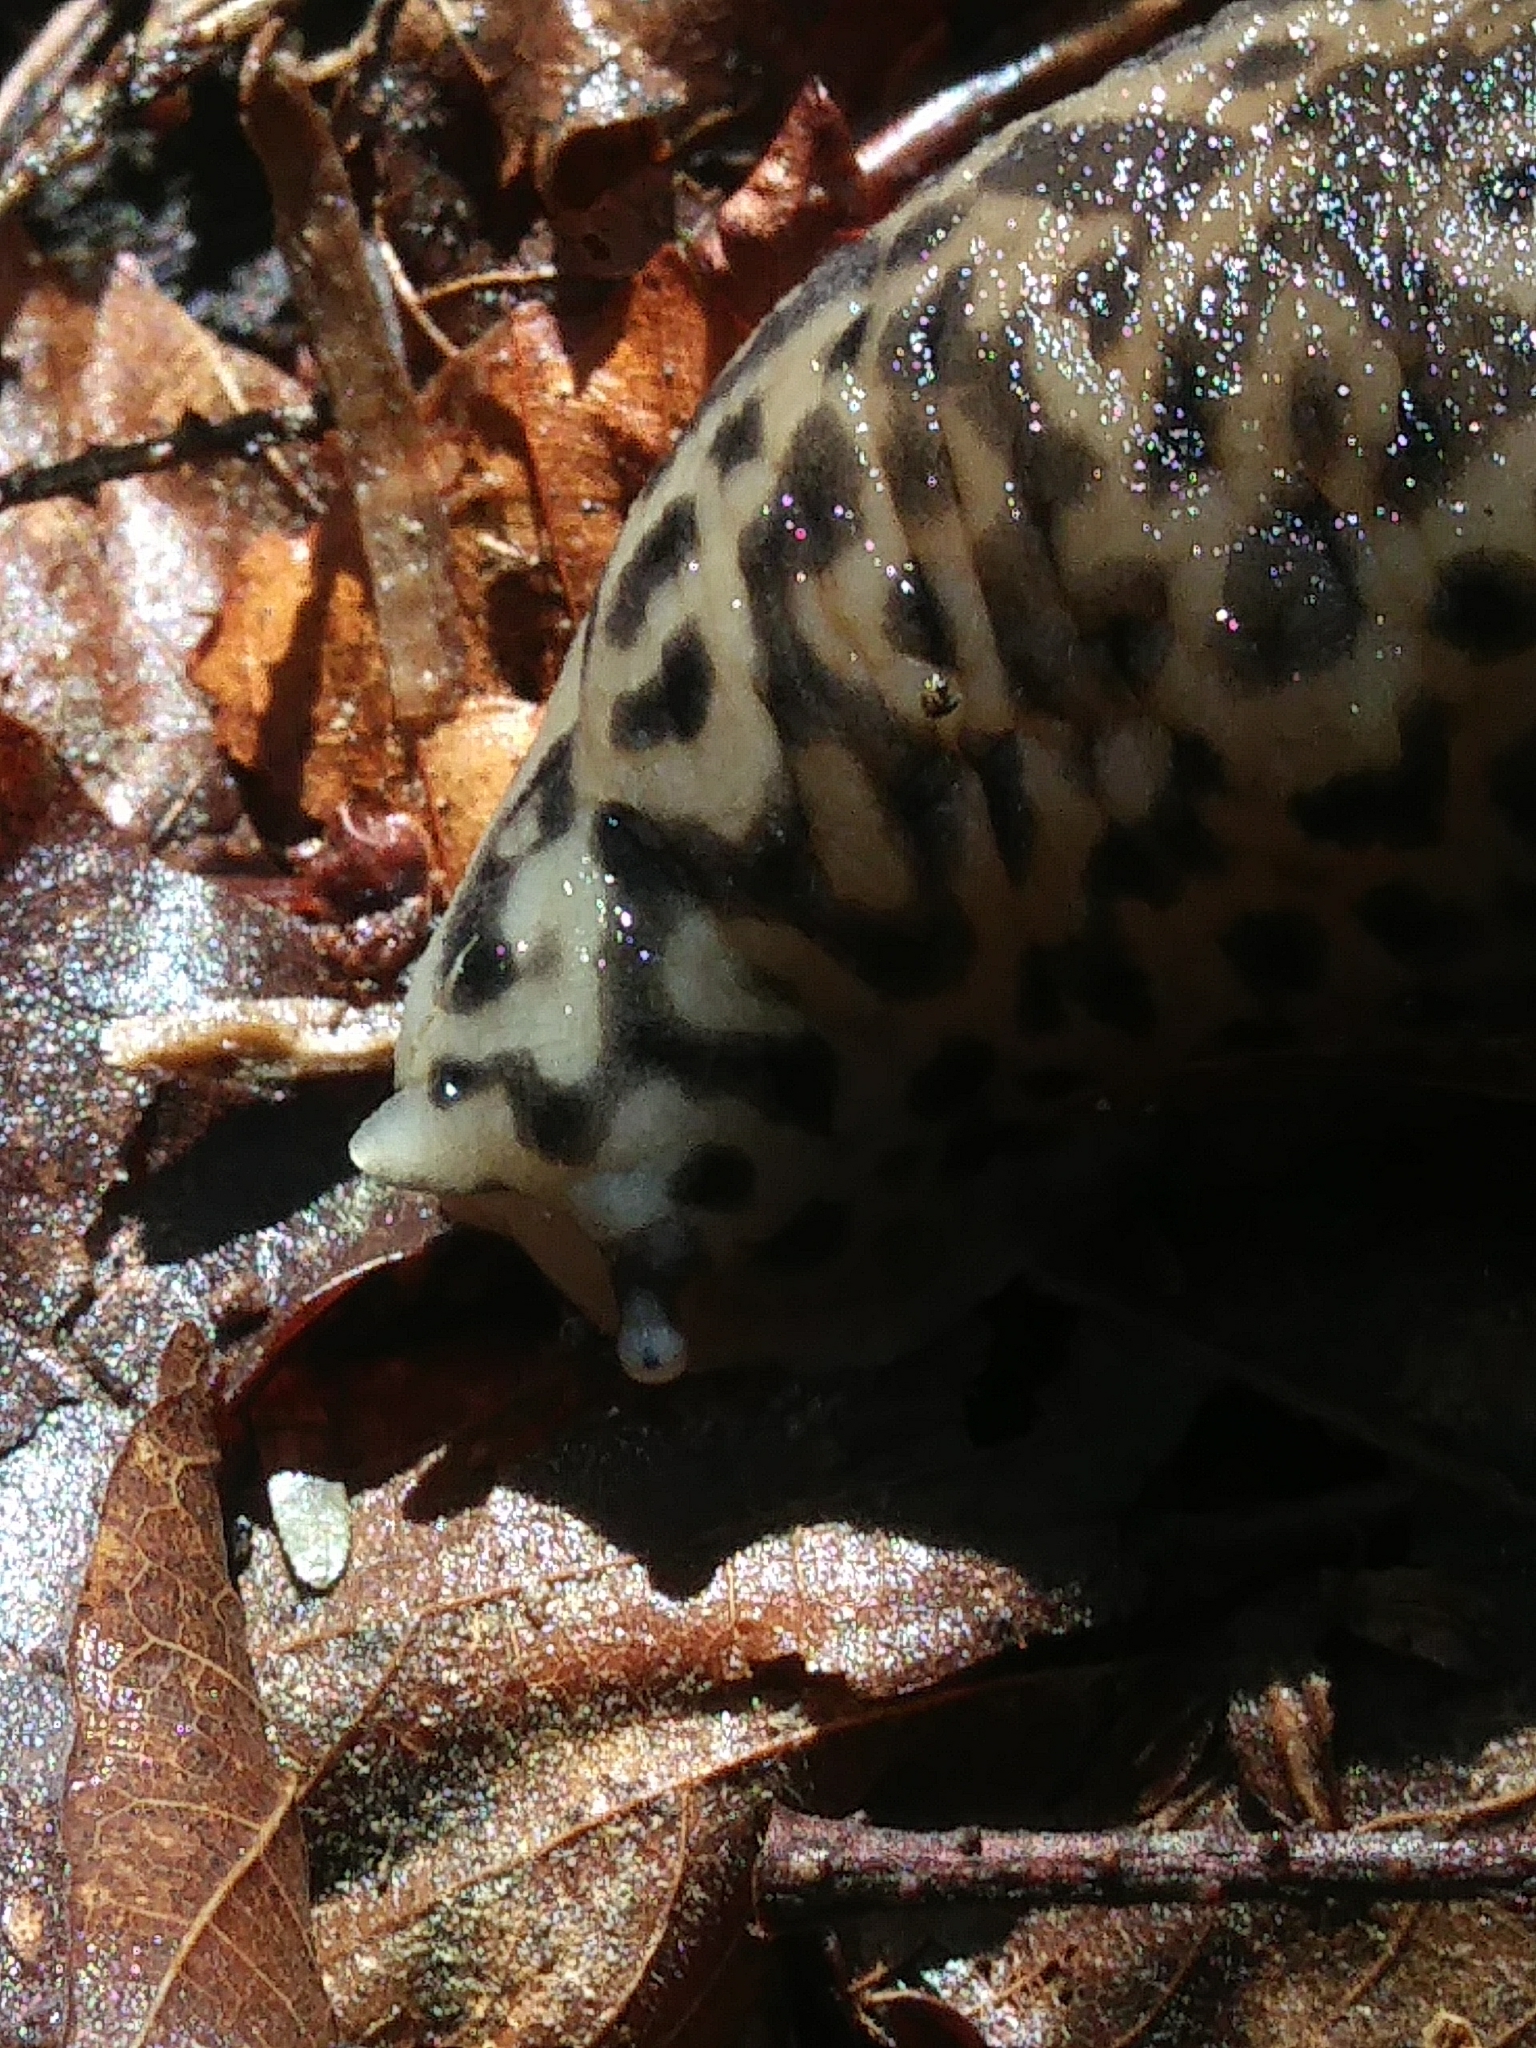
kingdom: Animalia
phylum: Mollusca
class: Gastropoda
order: Stylommatophora
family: Limacidae
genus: Limax
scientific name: Limax maximus
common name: Great grey slug
